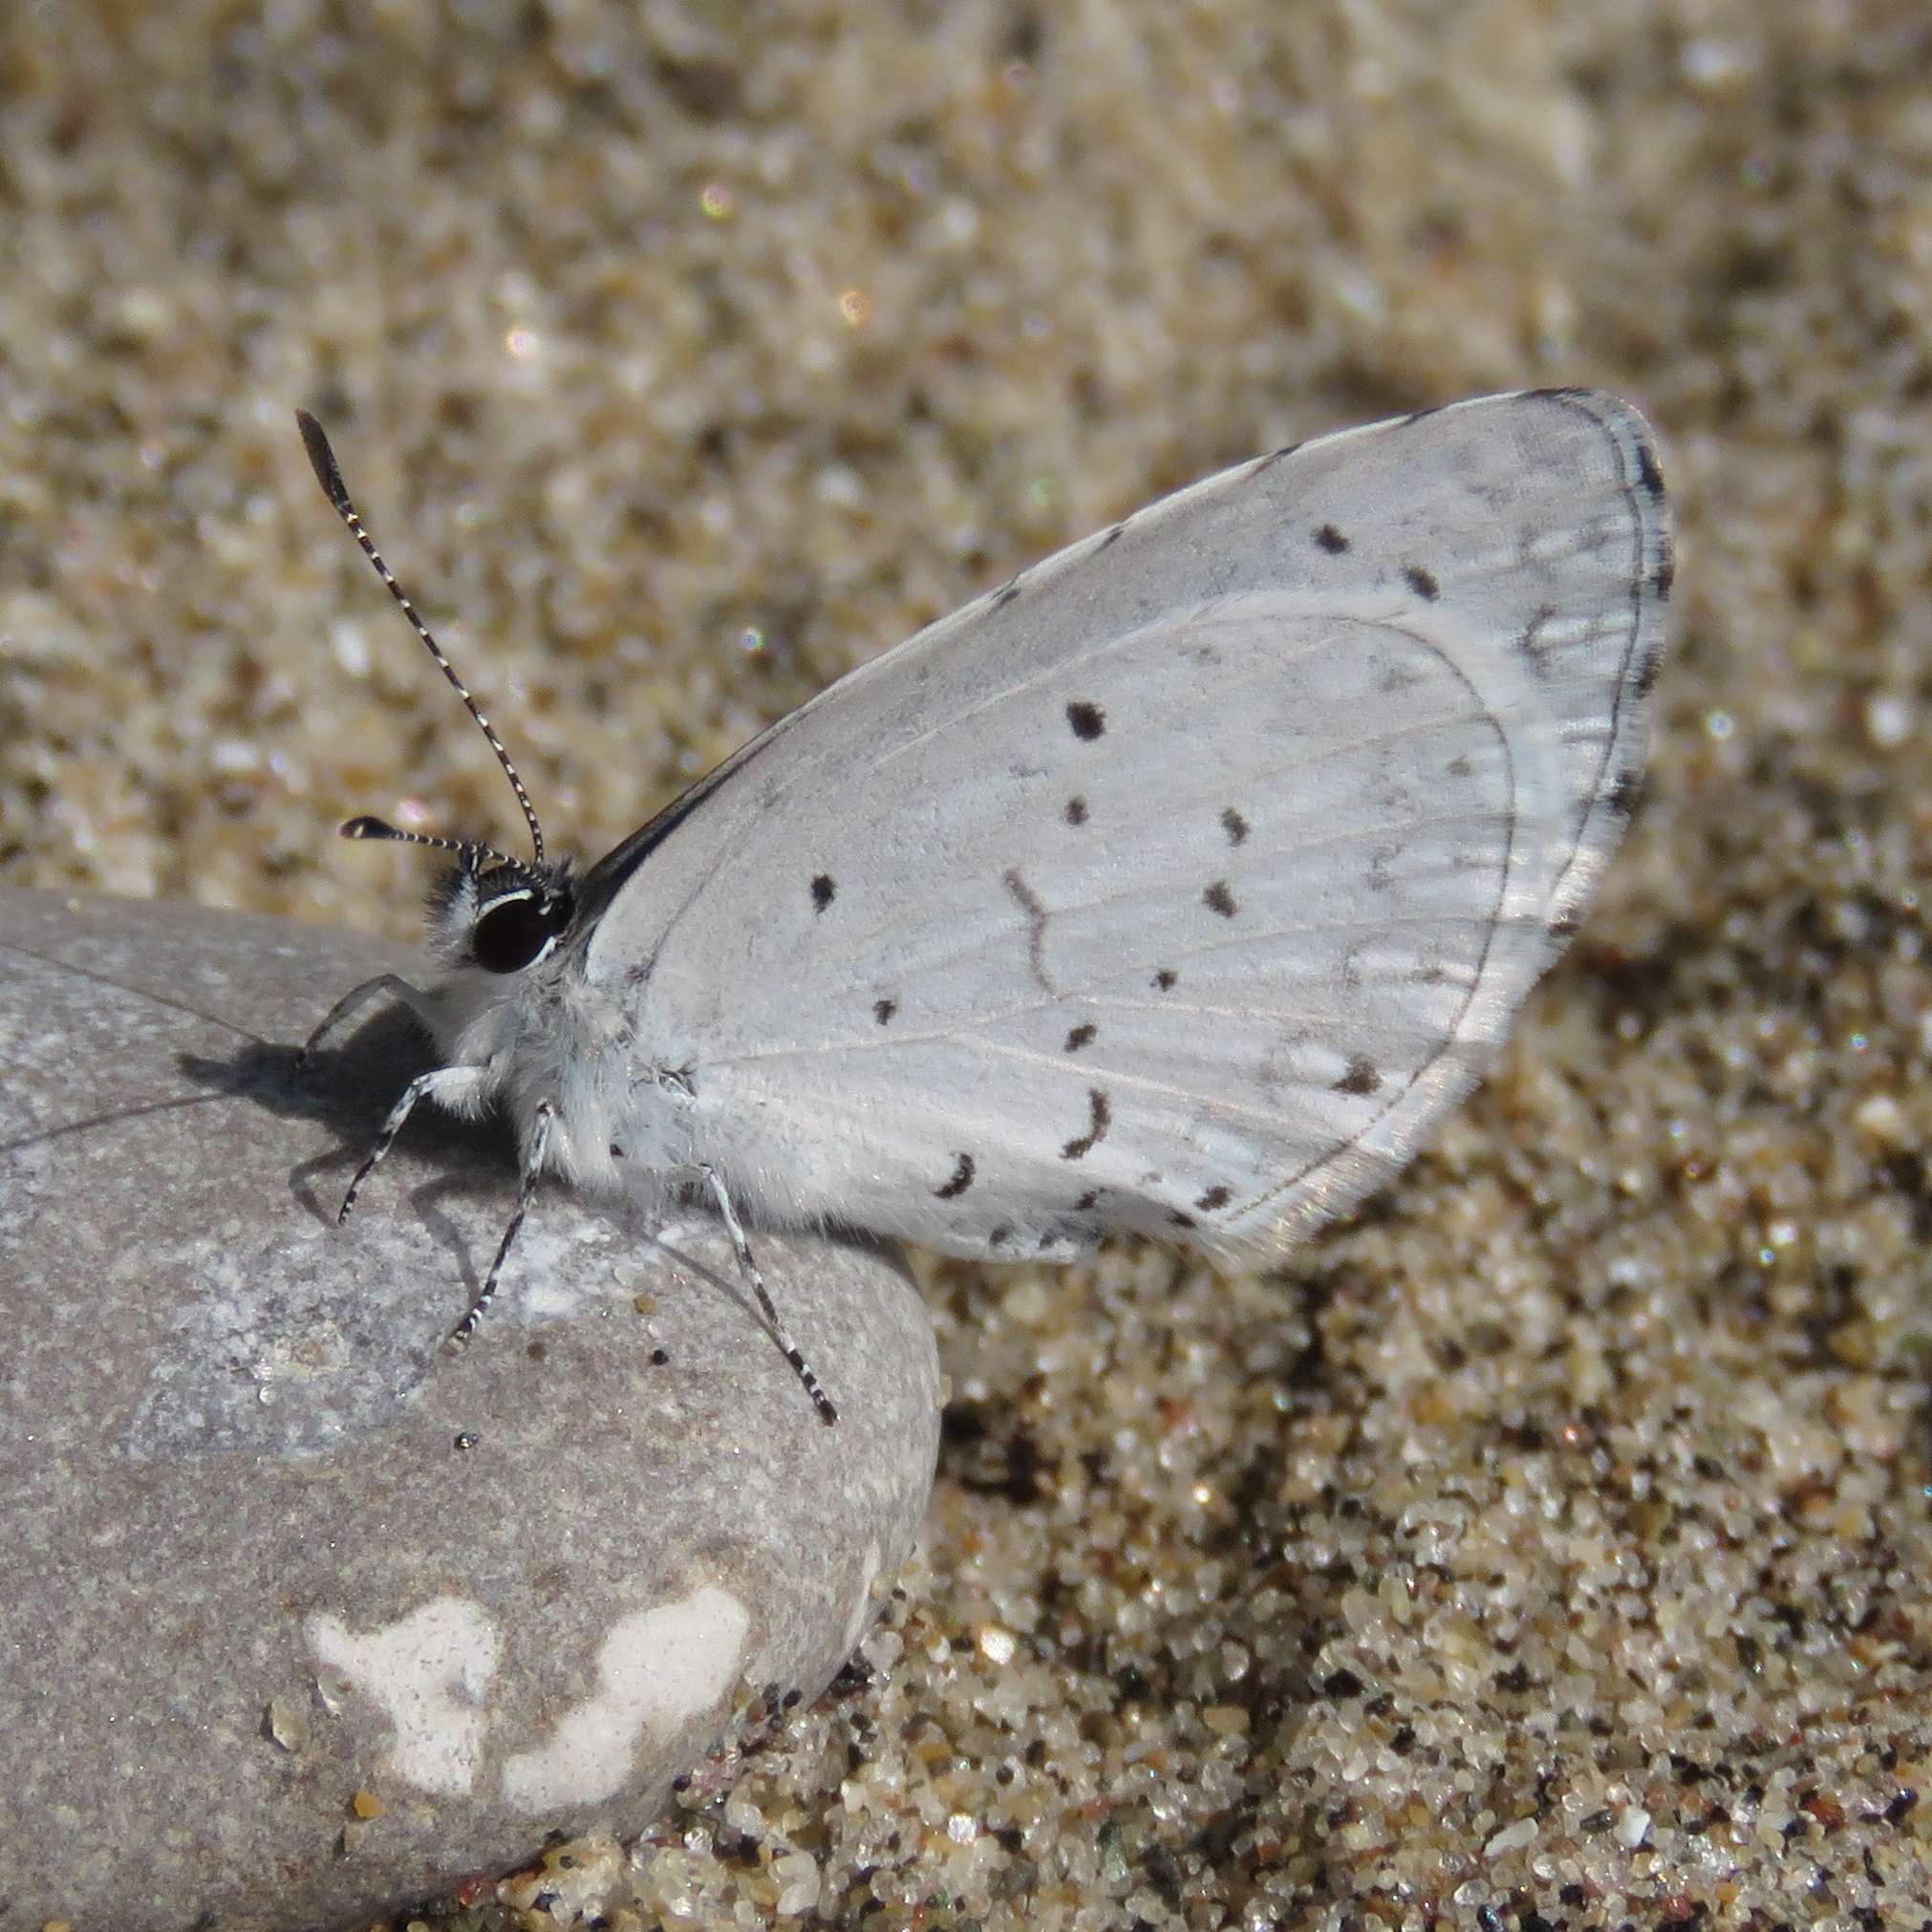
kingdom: Animalia
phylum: Arthropoda
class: Insecta
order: Lepidoptera
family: Lycaenidae
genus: Cyaniris
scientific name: Cyaniris neglecta
